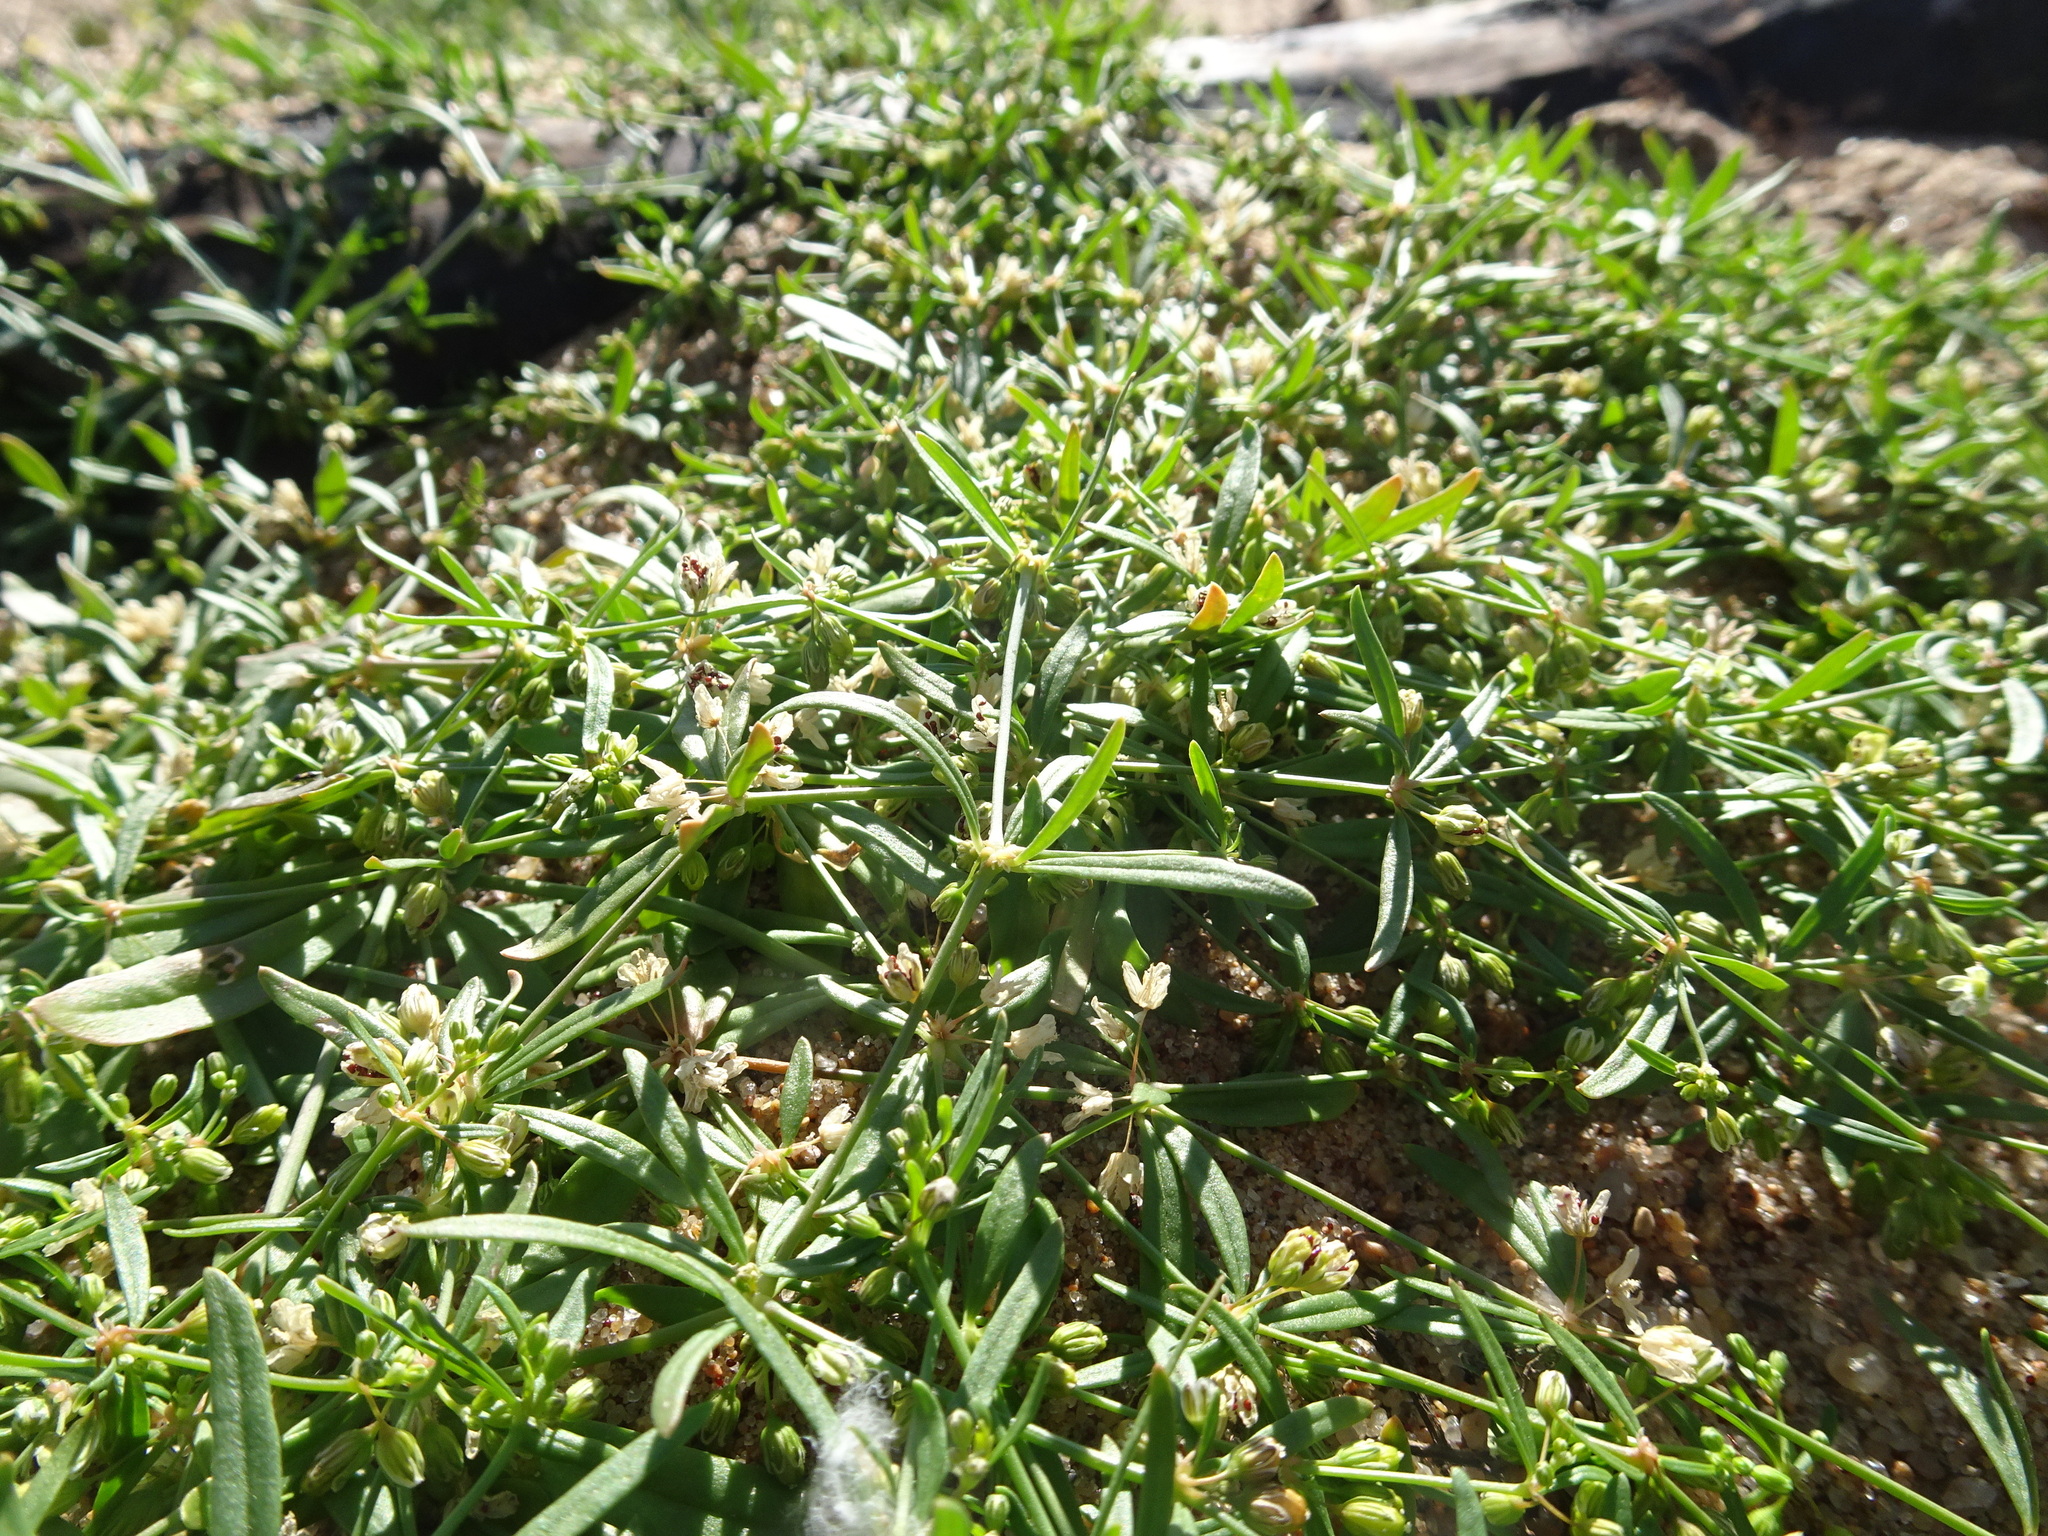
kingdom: Plantae
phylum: Tracheophyta
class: Magnoliopsida
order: Caryophyllales
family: Molluginaceae
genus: Mollugo
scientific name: Mollugo verticillata
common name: Green carpetweed
